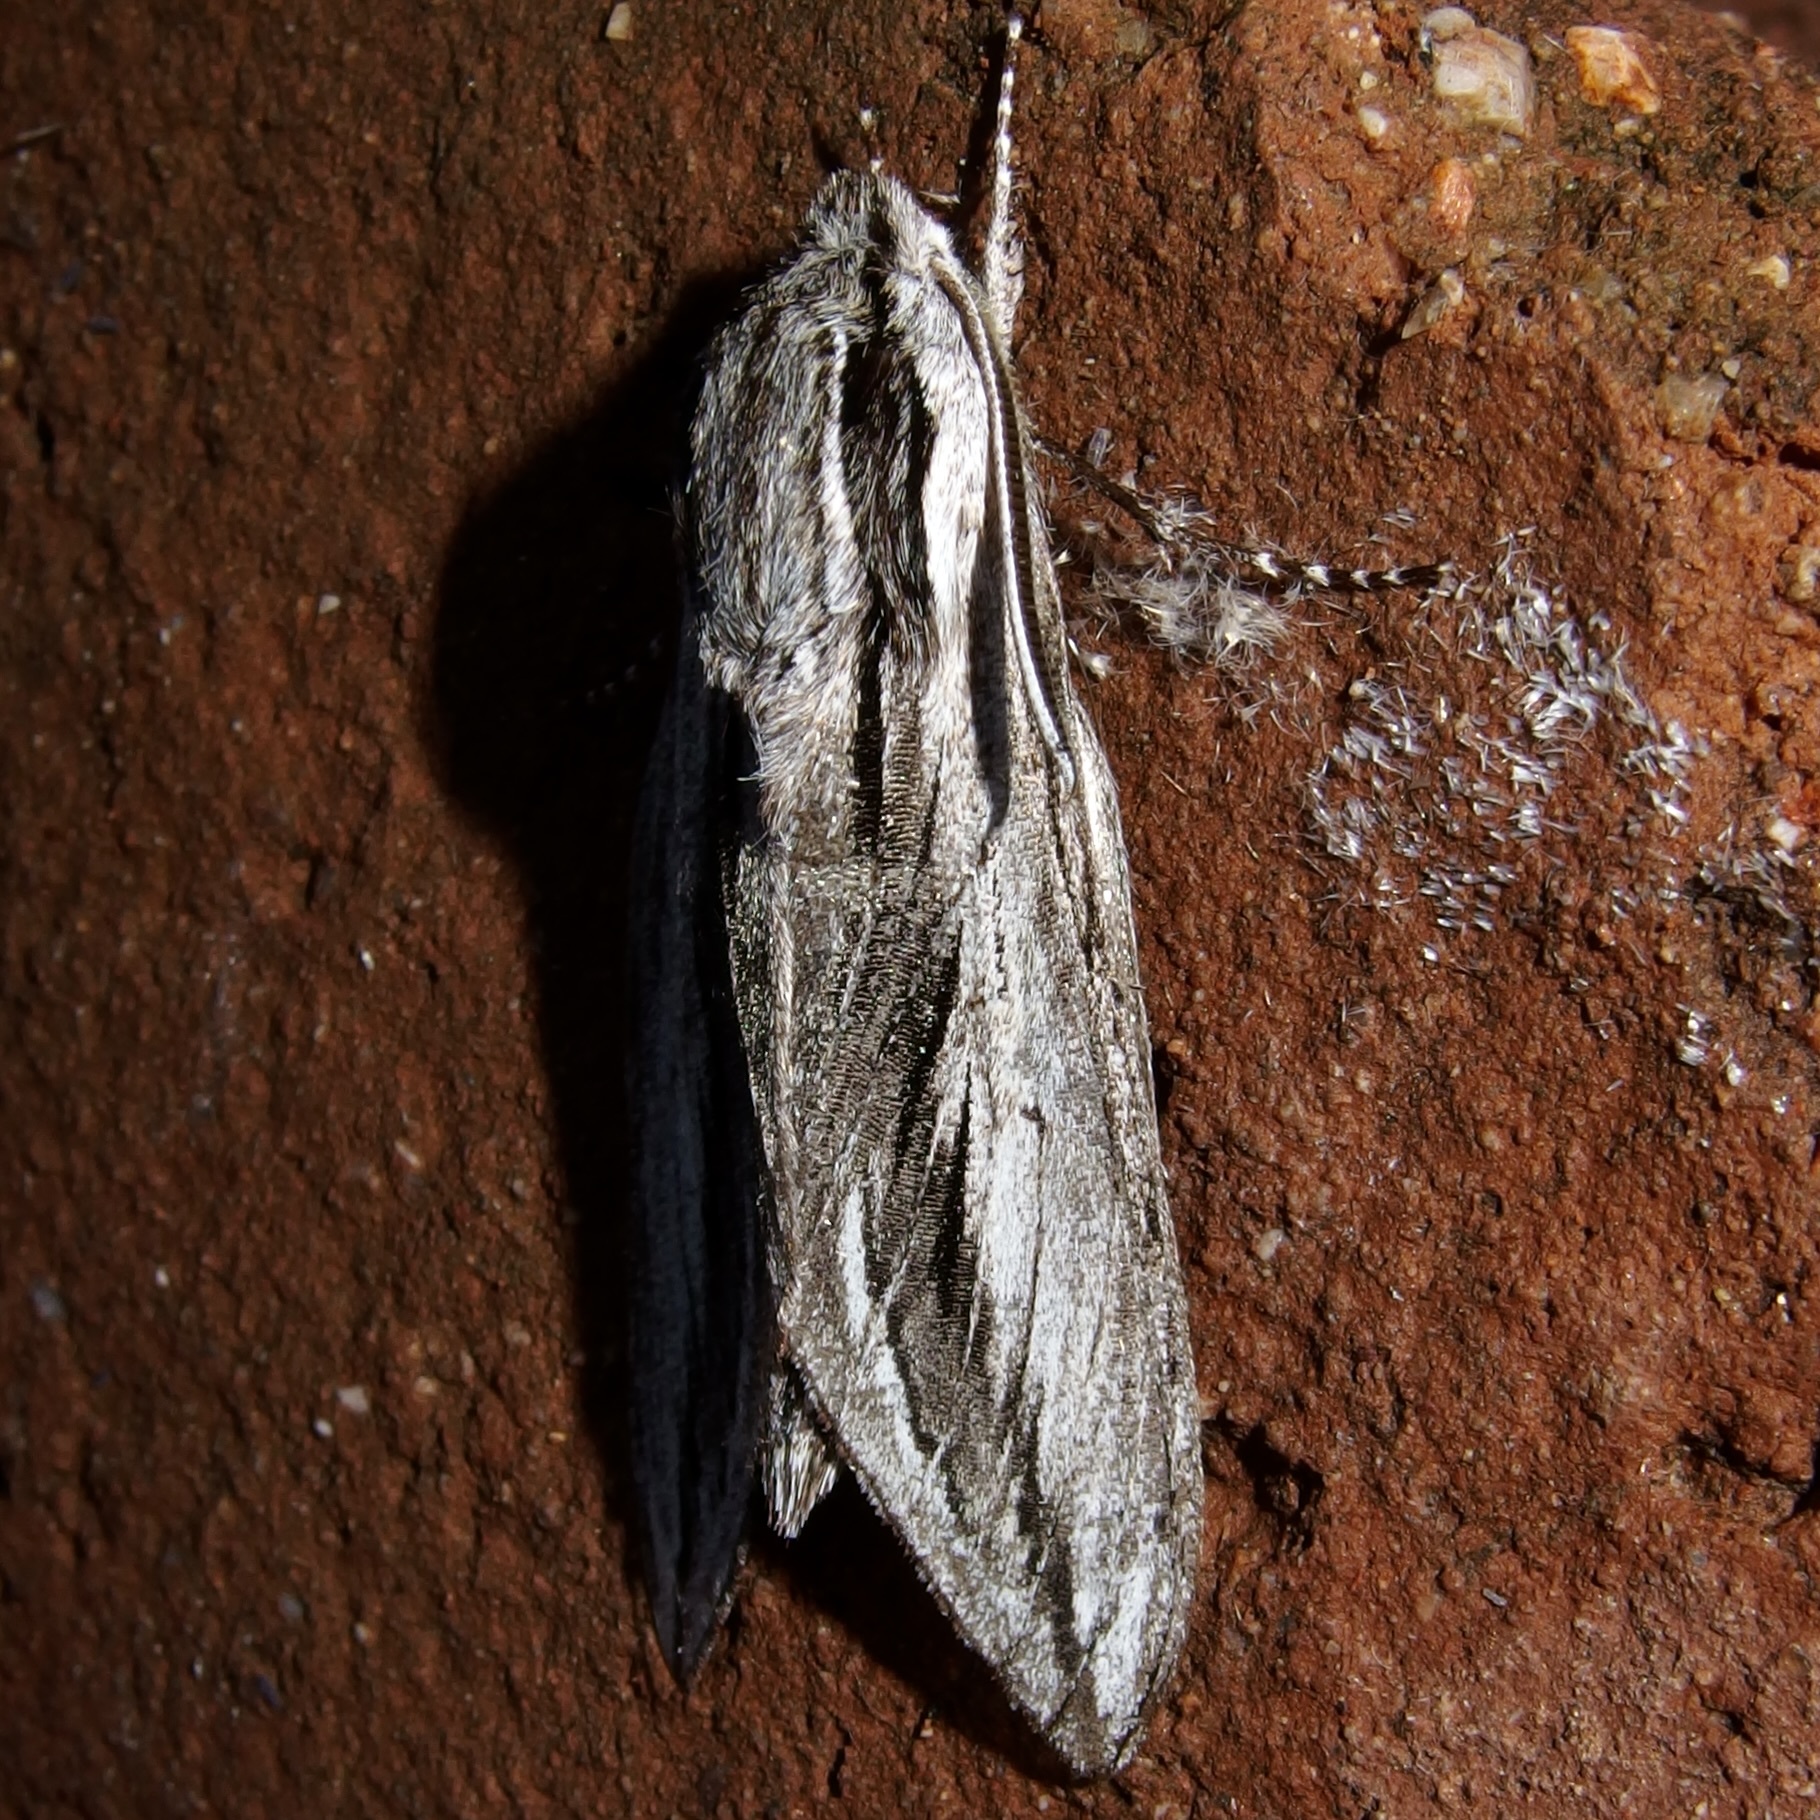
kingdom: Animalia
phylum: Arthropoda
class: Insecta
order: Lepidoptera
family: Sphingidae
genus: Sphinx
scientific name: Sphinx dollii
